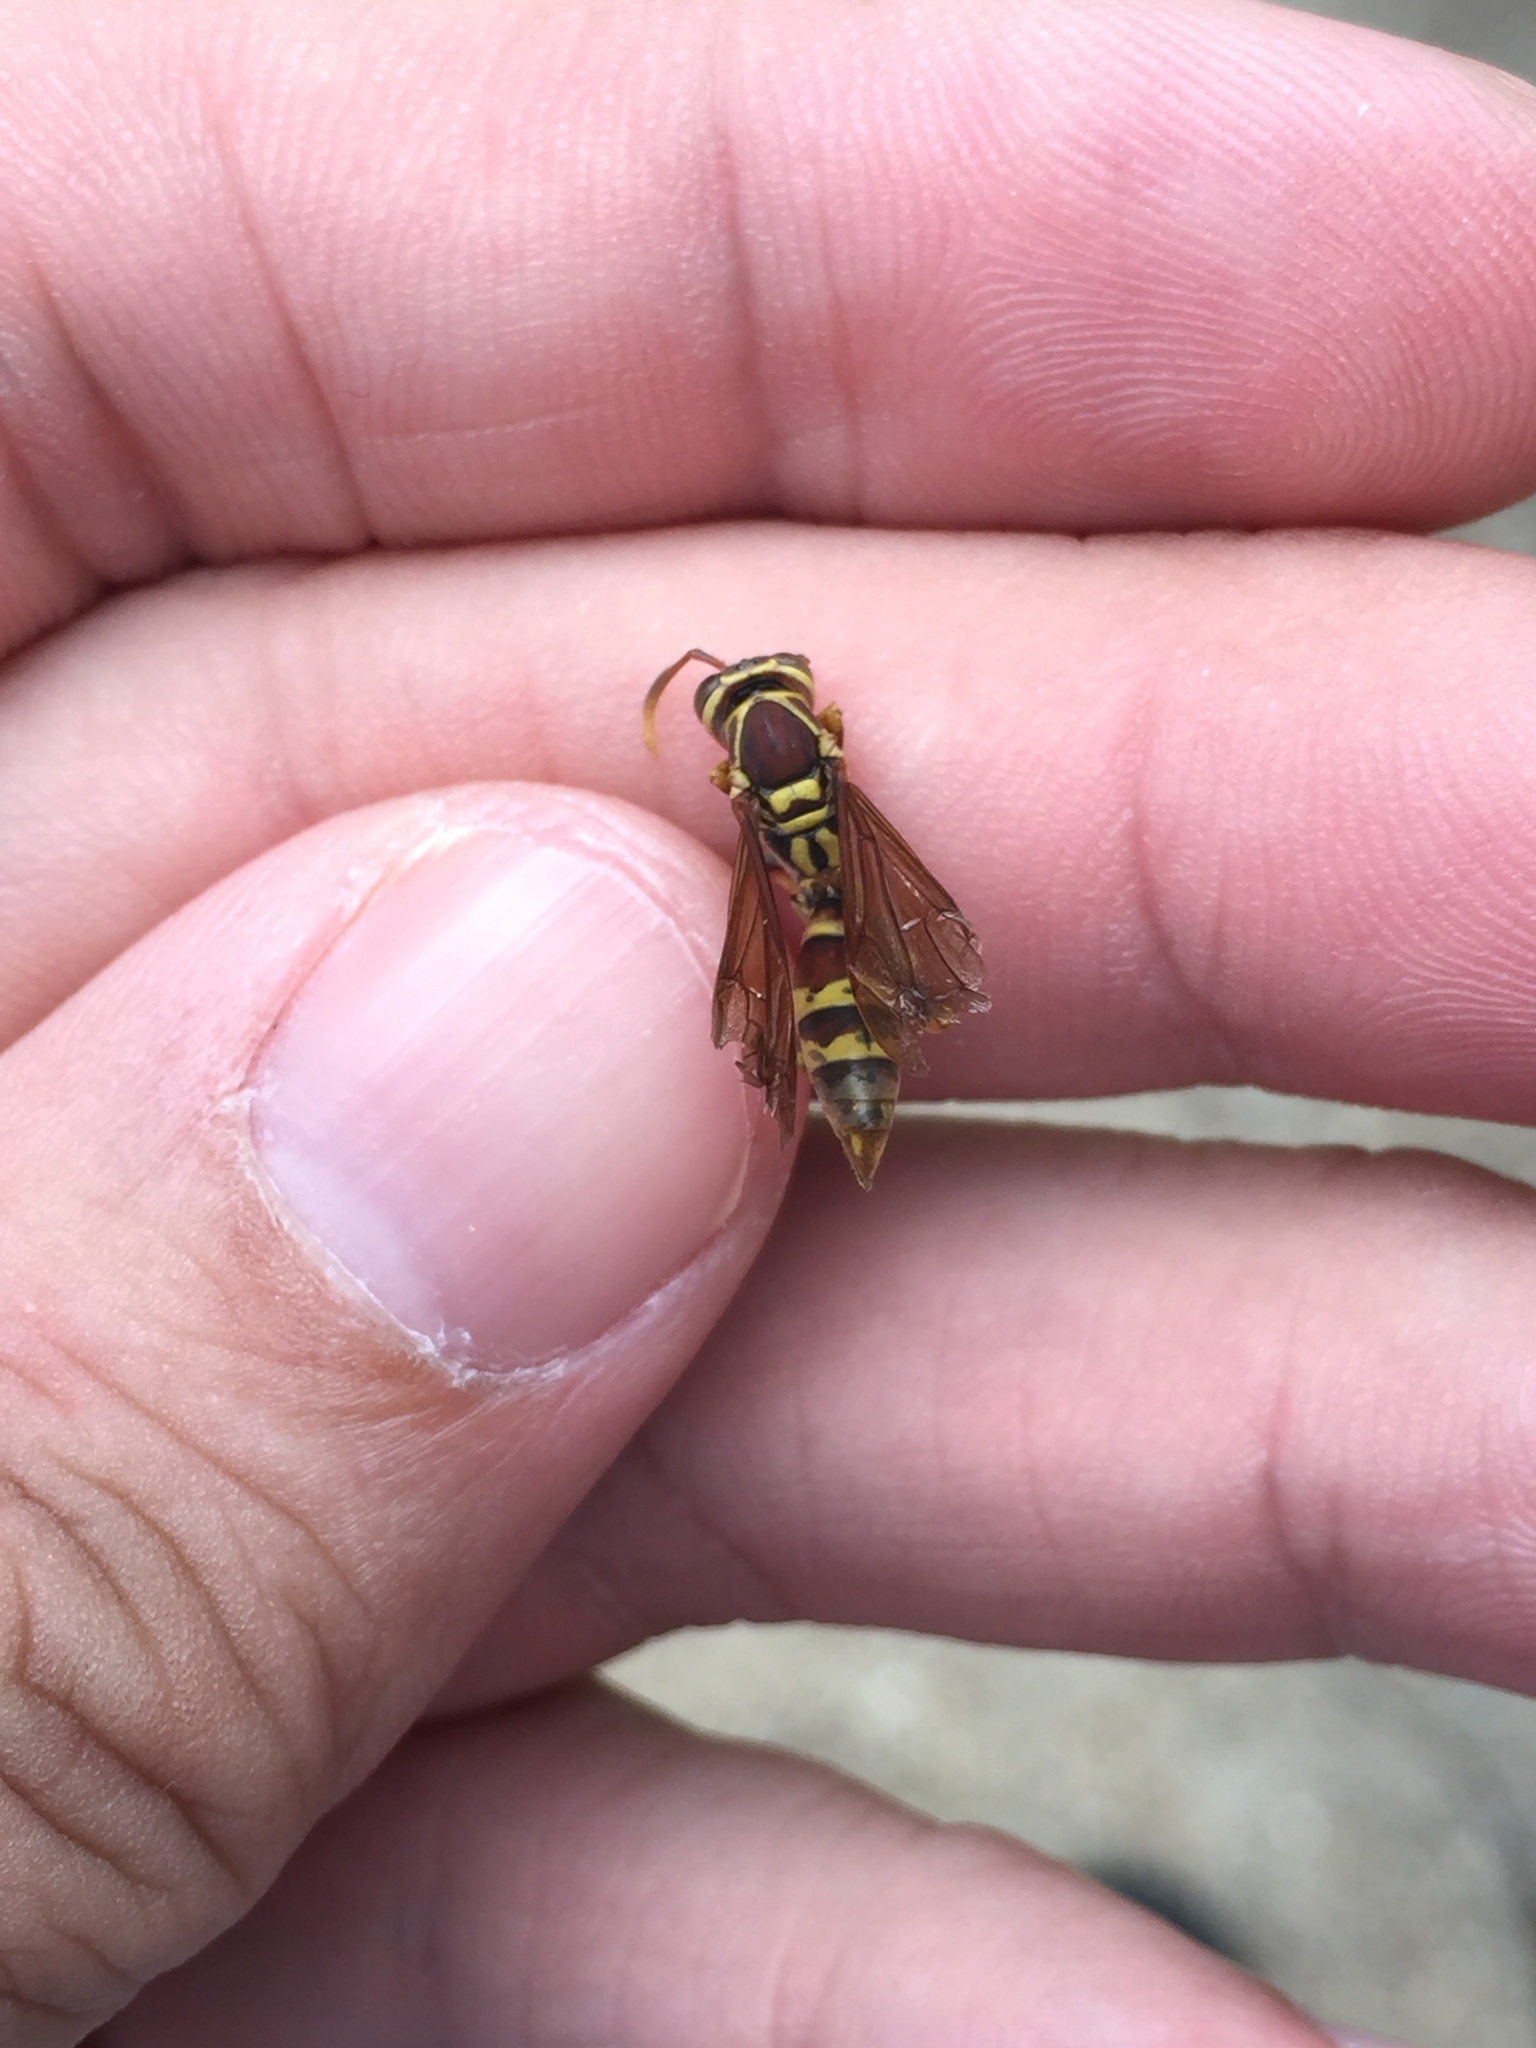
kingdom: Animalia
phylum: Arthropoda
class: Insecta
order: Hymenoptera
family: Eumenidae
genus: Polistes
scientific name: Polistes exclamans
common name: Paper wasp
